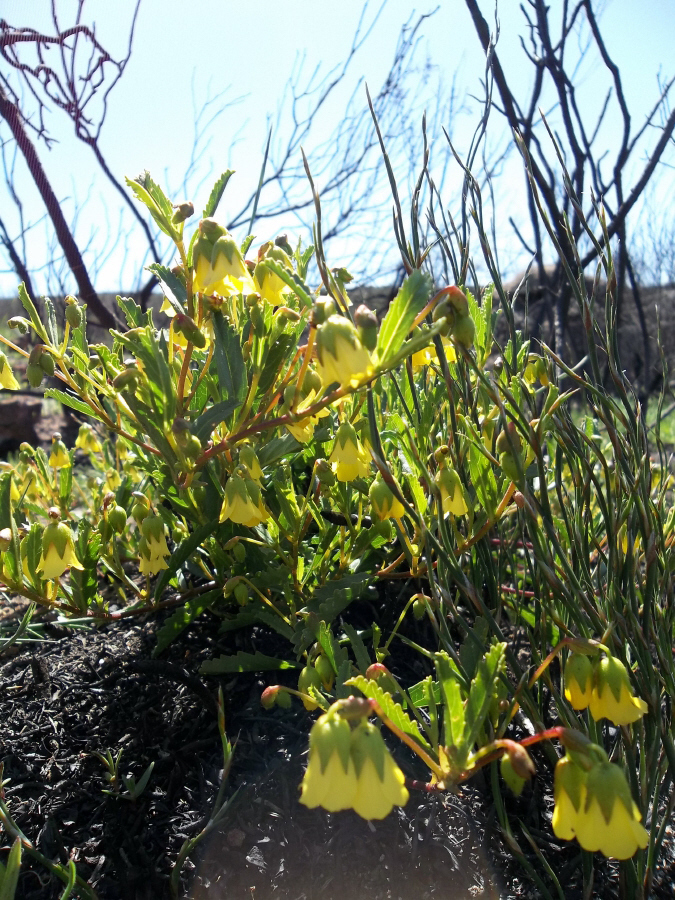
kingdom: Plantae
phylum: Tracheophyta
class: Magnoliopsida
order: Malvales
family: Malvaceae
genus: Hermannia
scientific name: Hermannia saccifera
